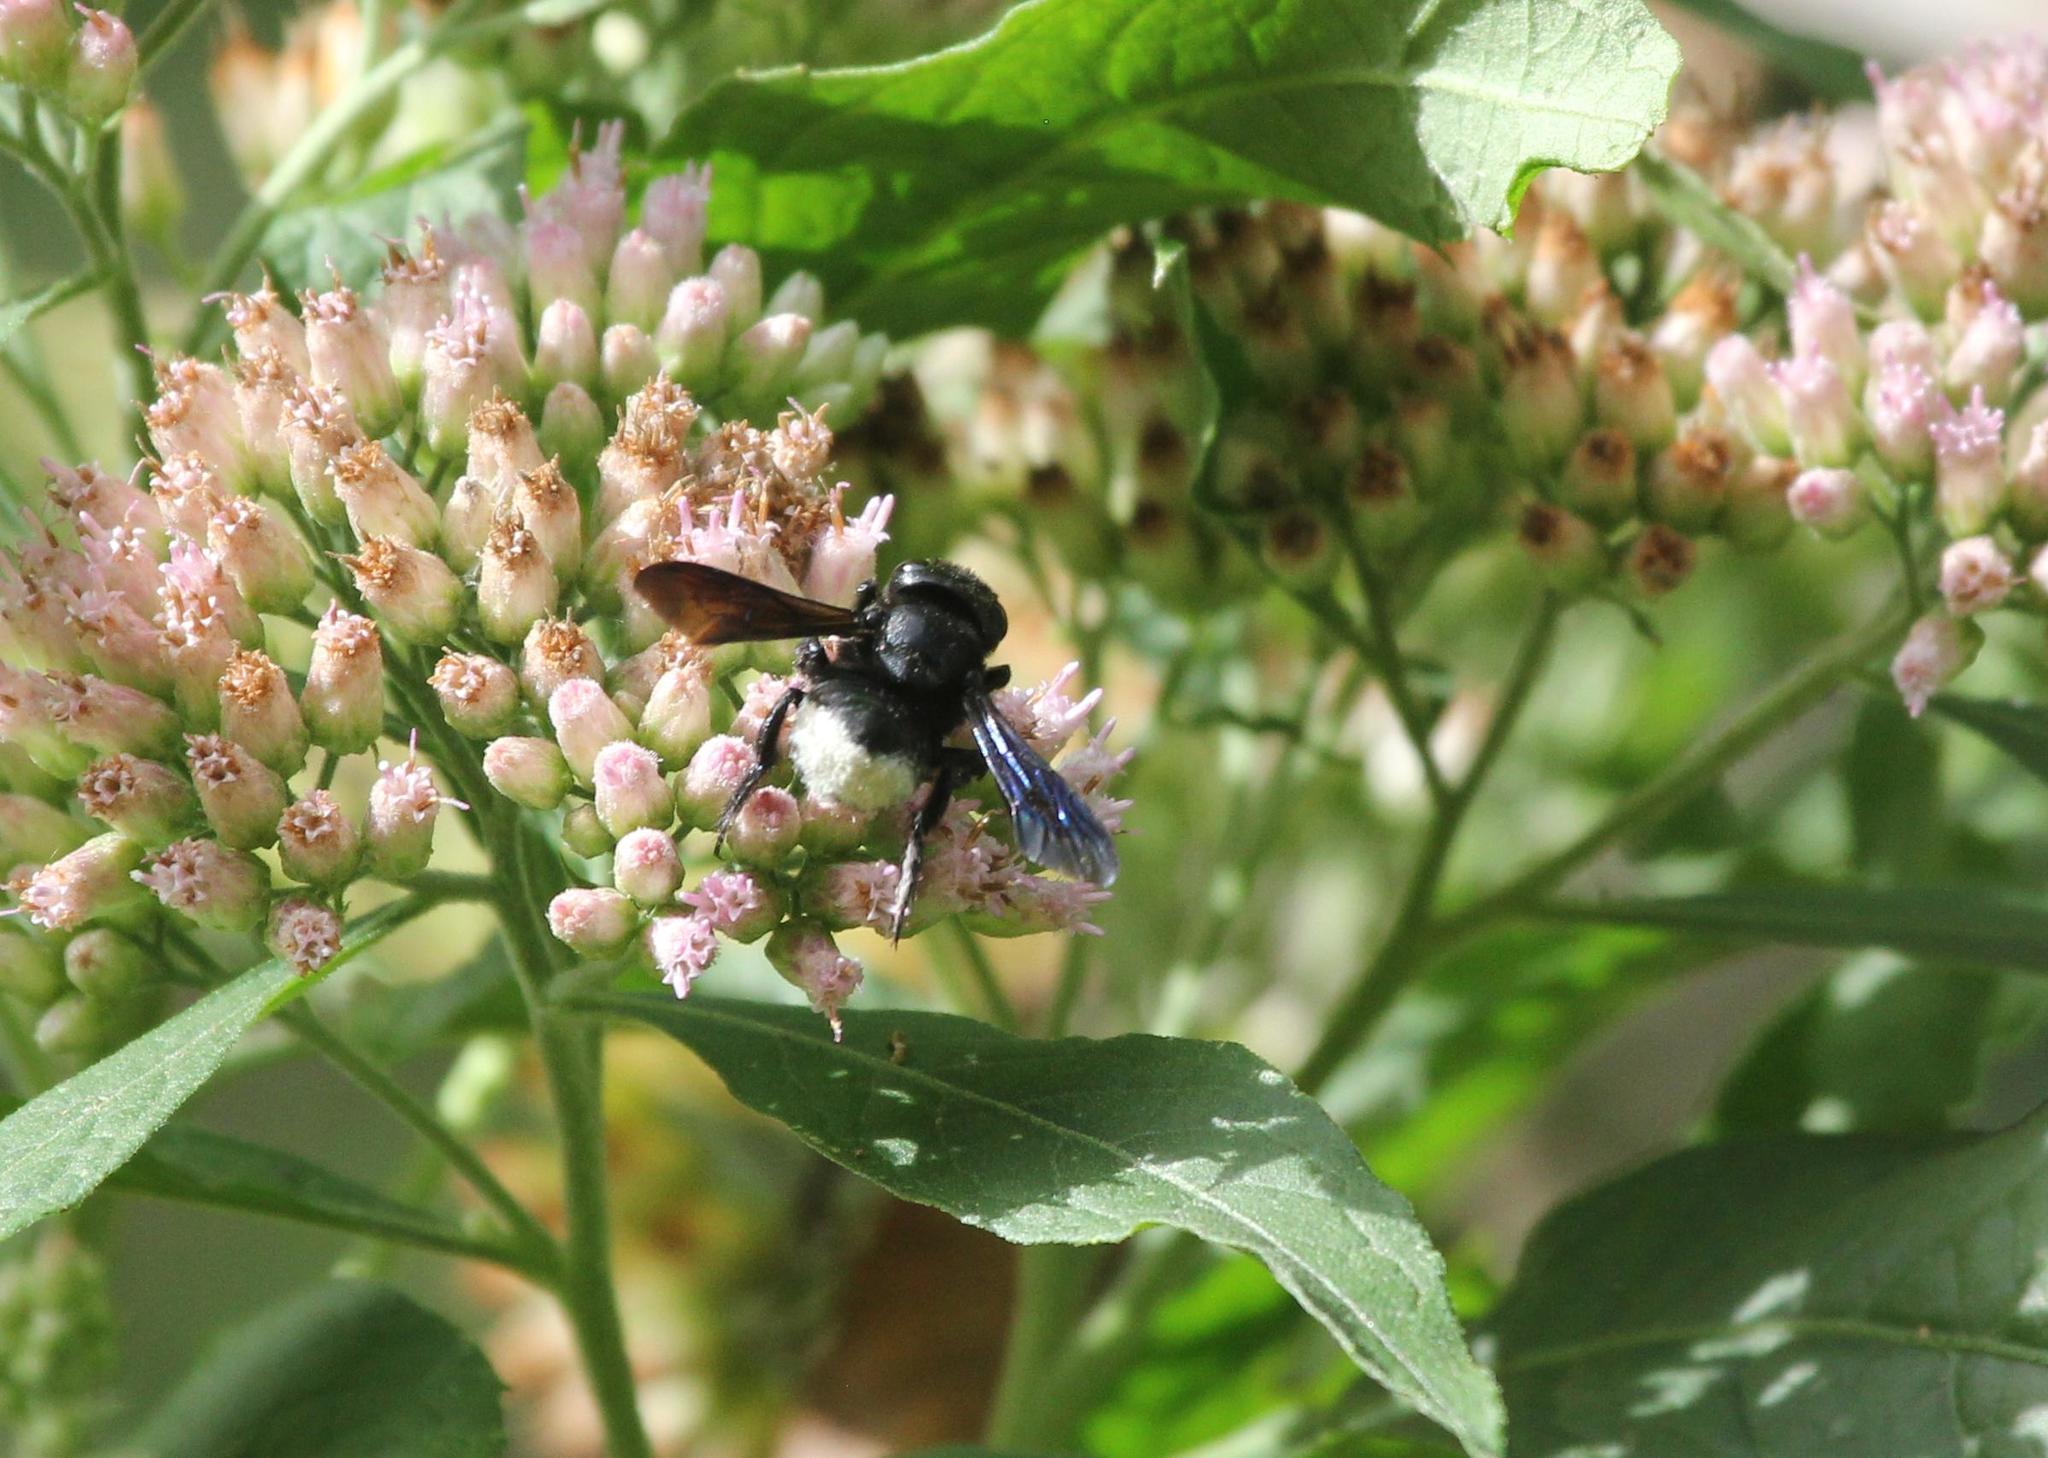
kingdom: Animalia
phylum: Arthropoda
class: Insecta
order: Hymenoptera
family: Megachilidae
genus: Megachile
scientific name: Megachile xylocopoides
